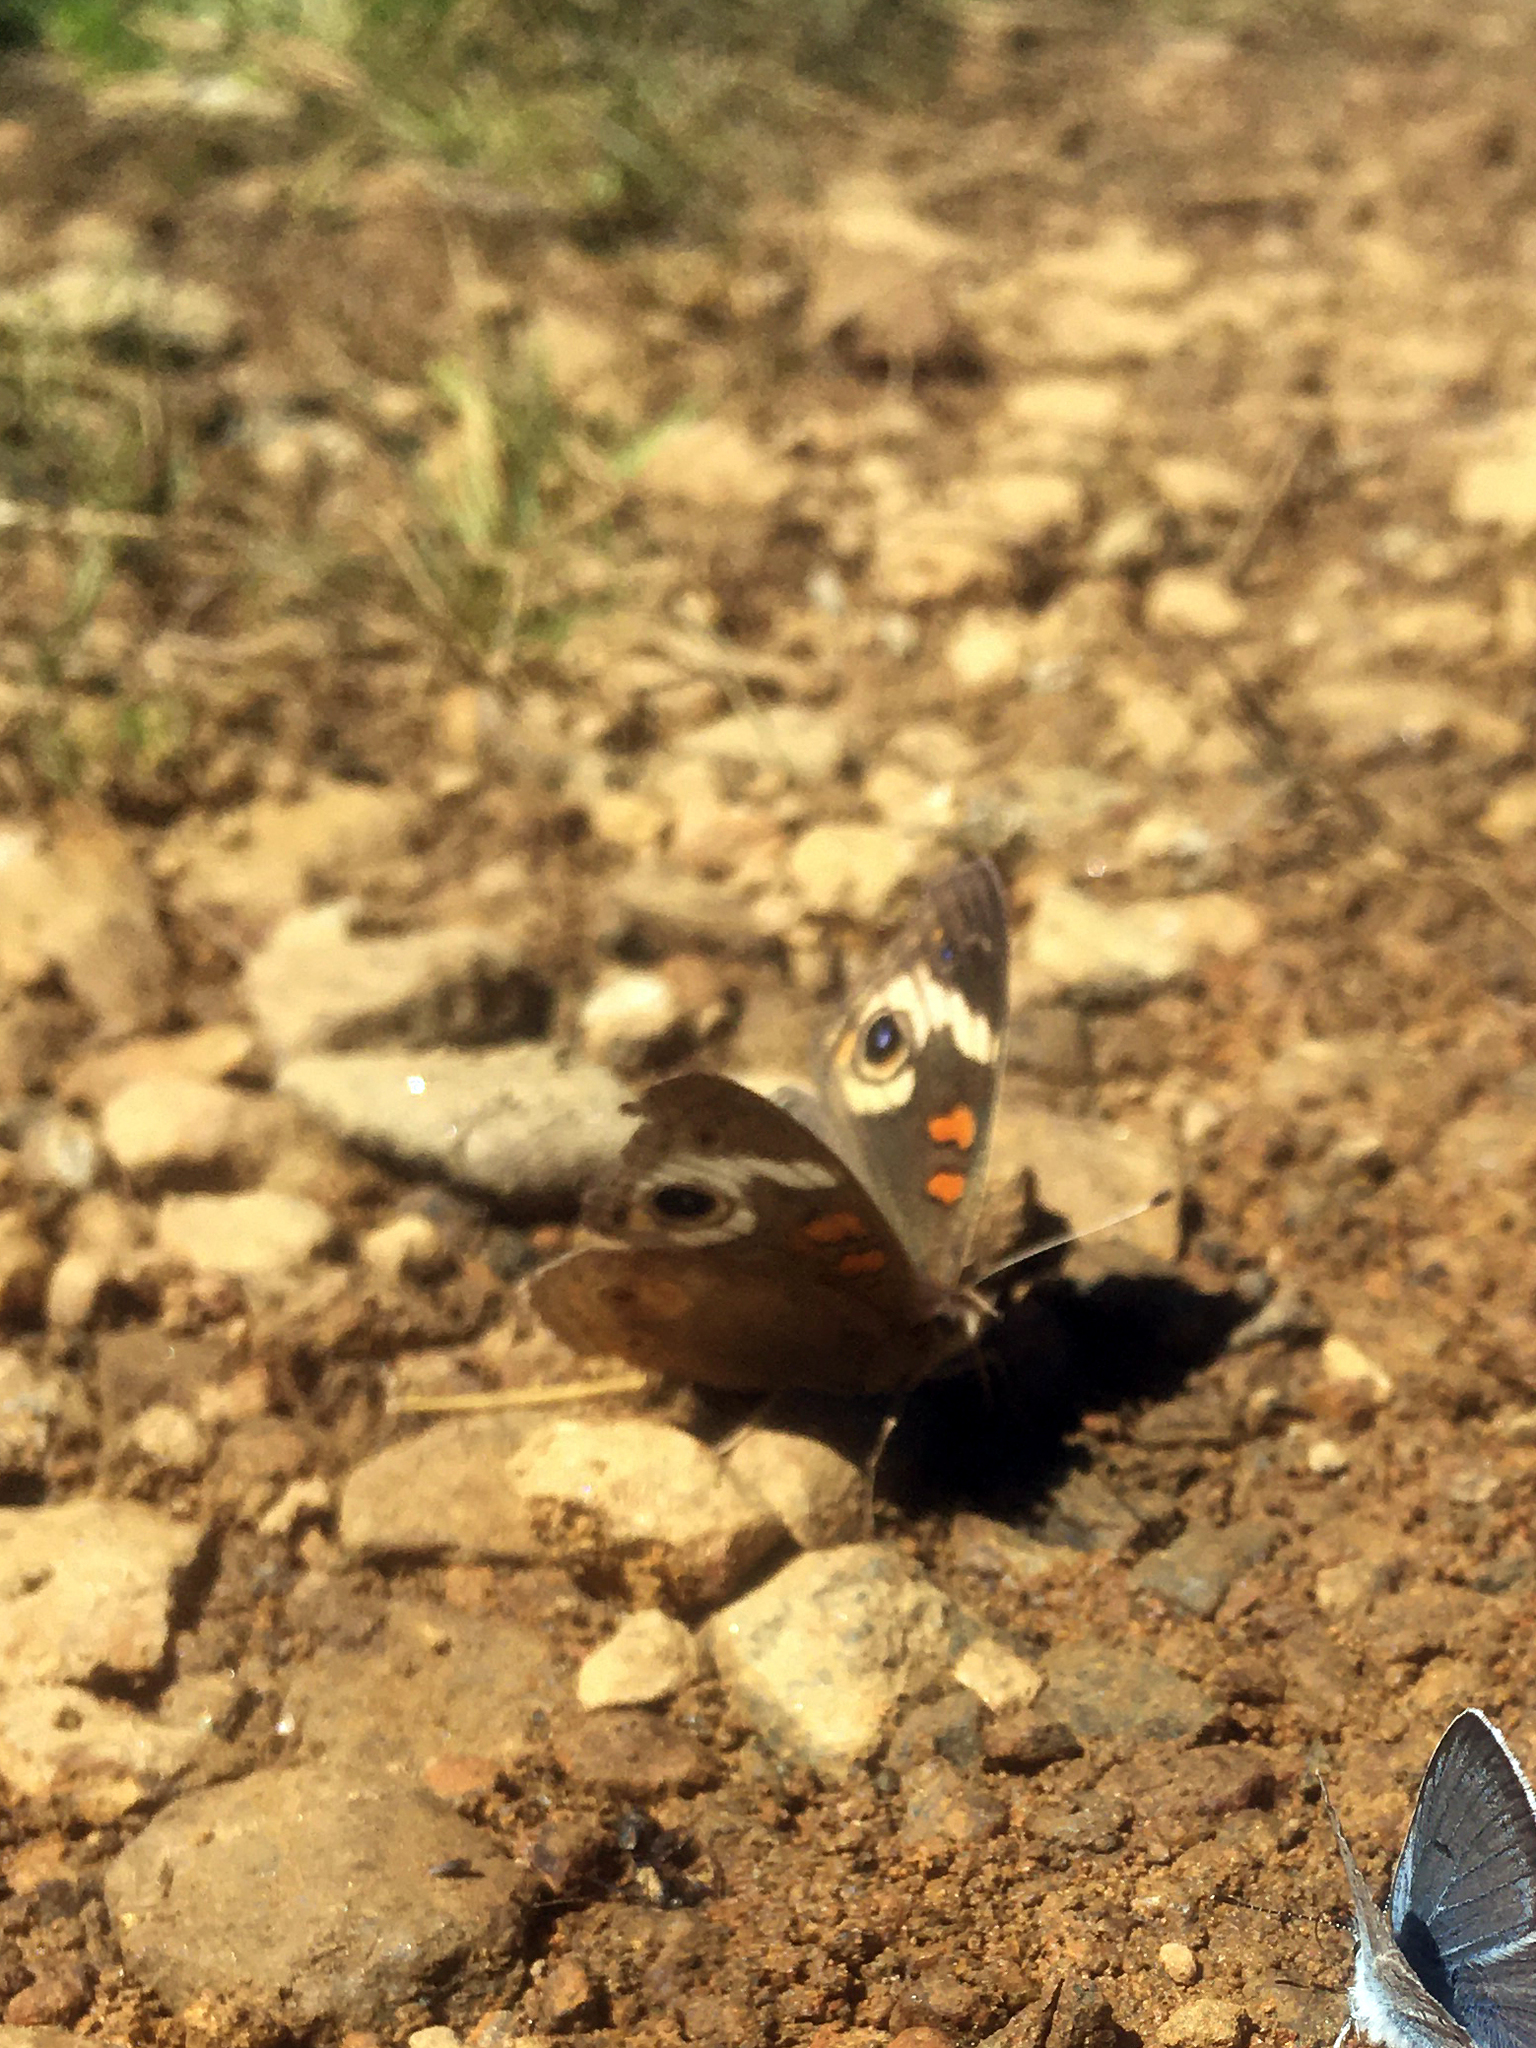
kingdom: Animalia
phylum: Arthropoda
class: Insecta
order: Lepidoptera
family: Nymphalidae
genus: Junonia
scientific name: Junonia grisea
